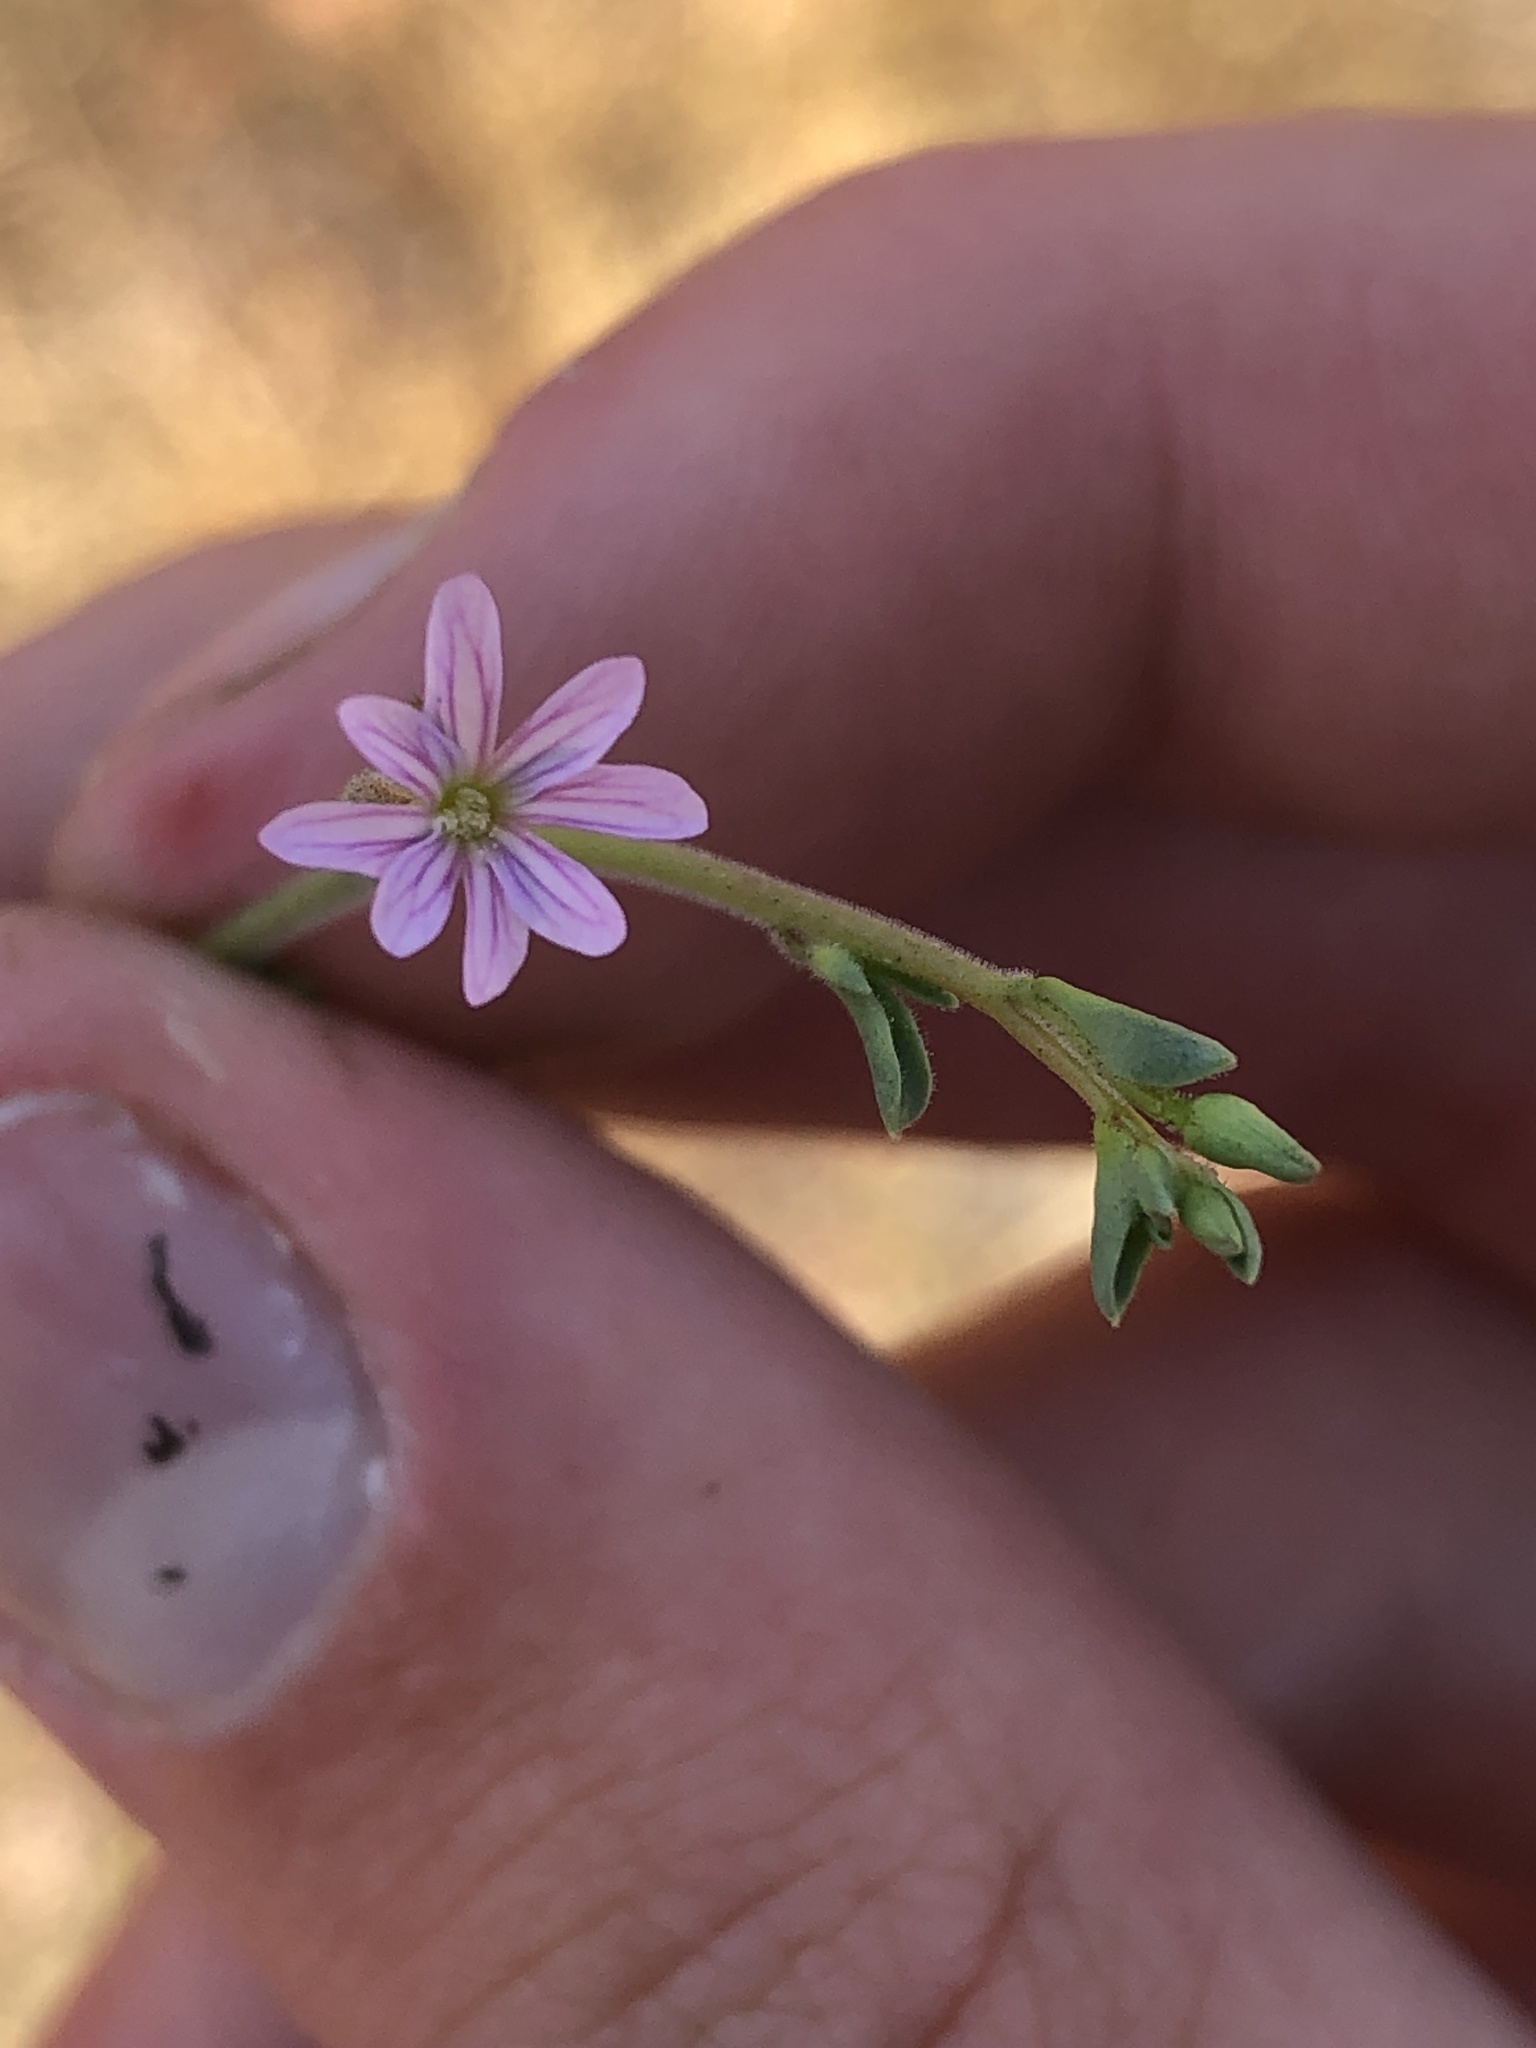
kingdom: Plantae
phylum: Tracheophyta
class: Magnoliopsida
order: Myrtales
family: Onagraceae
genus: Epilobium
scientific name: Epilobium brachycarpum
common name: Annual willowherb
